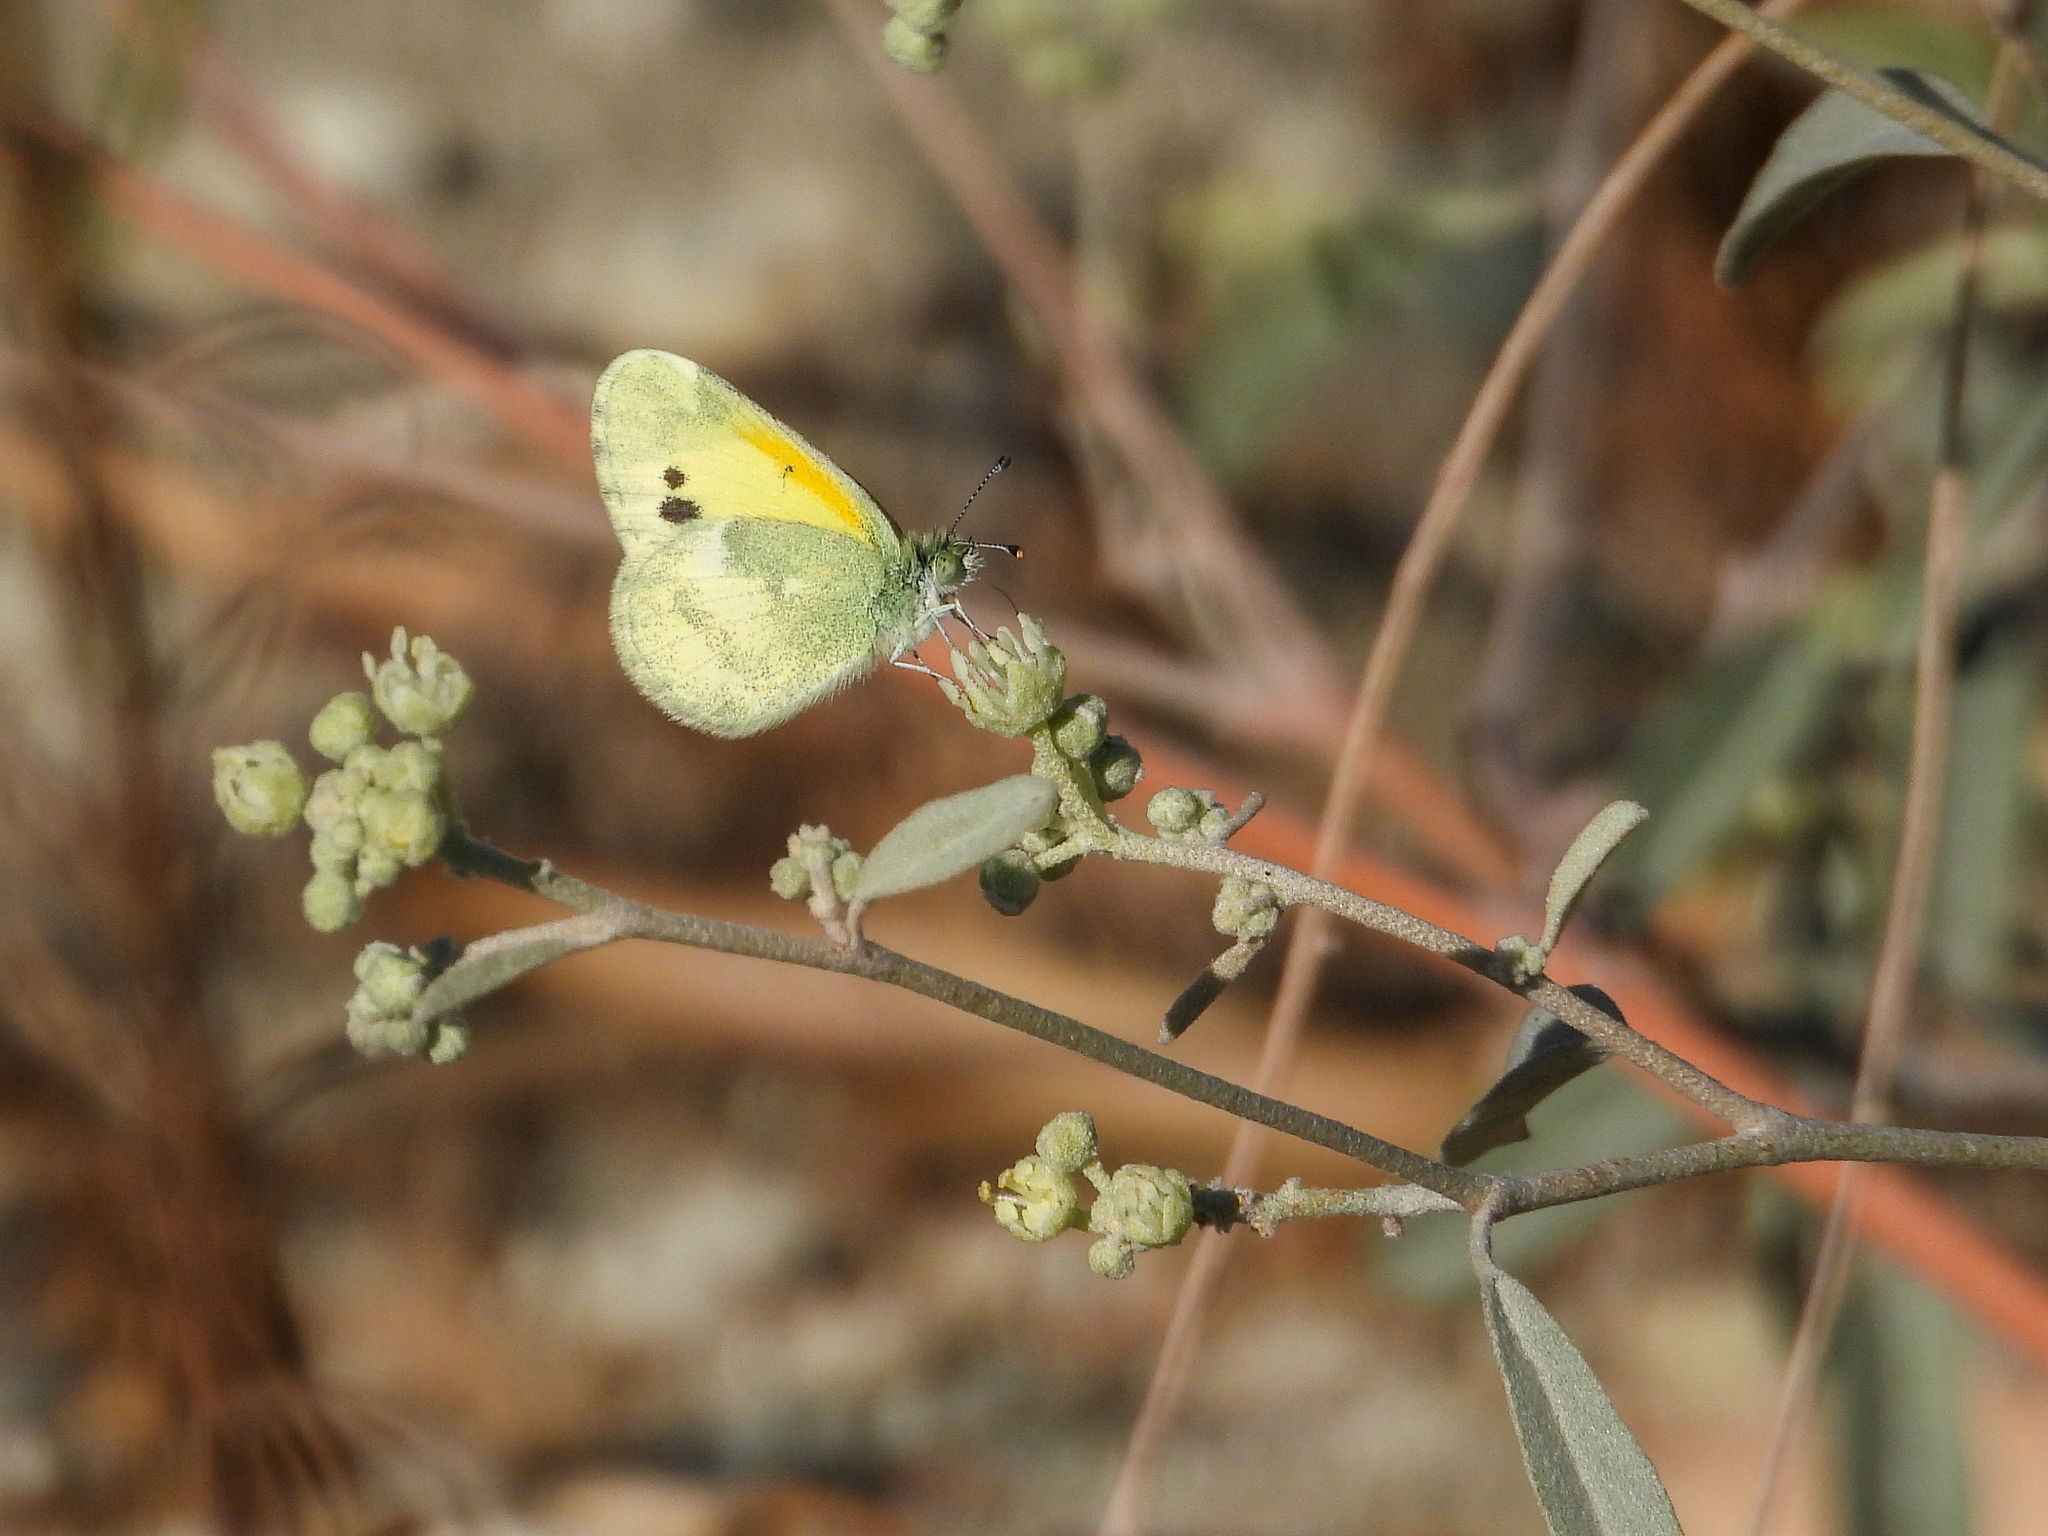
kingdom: Animalia
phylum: Arthropoda
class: Insecta
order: Lepidoptera
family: Pieridae
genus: Nathalis
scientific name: Nathalis iole
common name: Dainty sulphur
